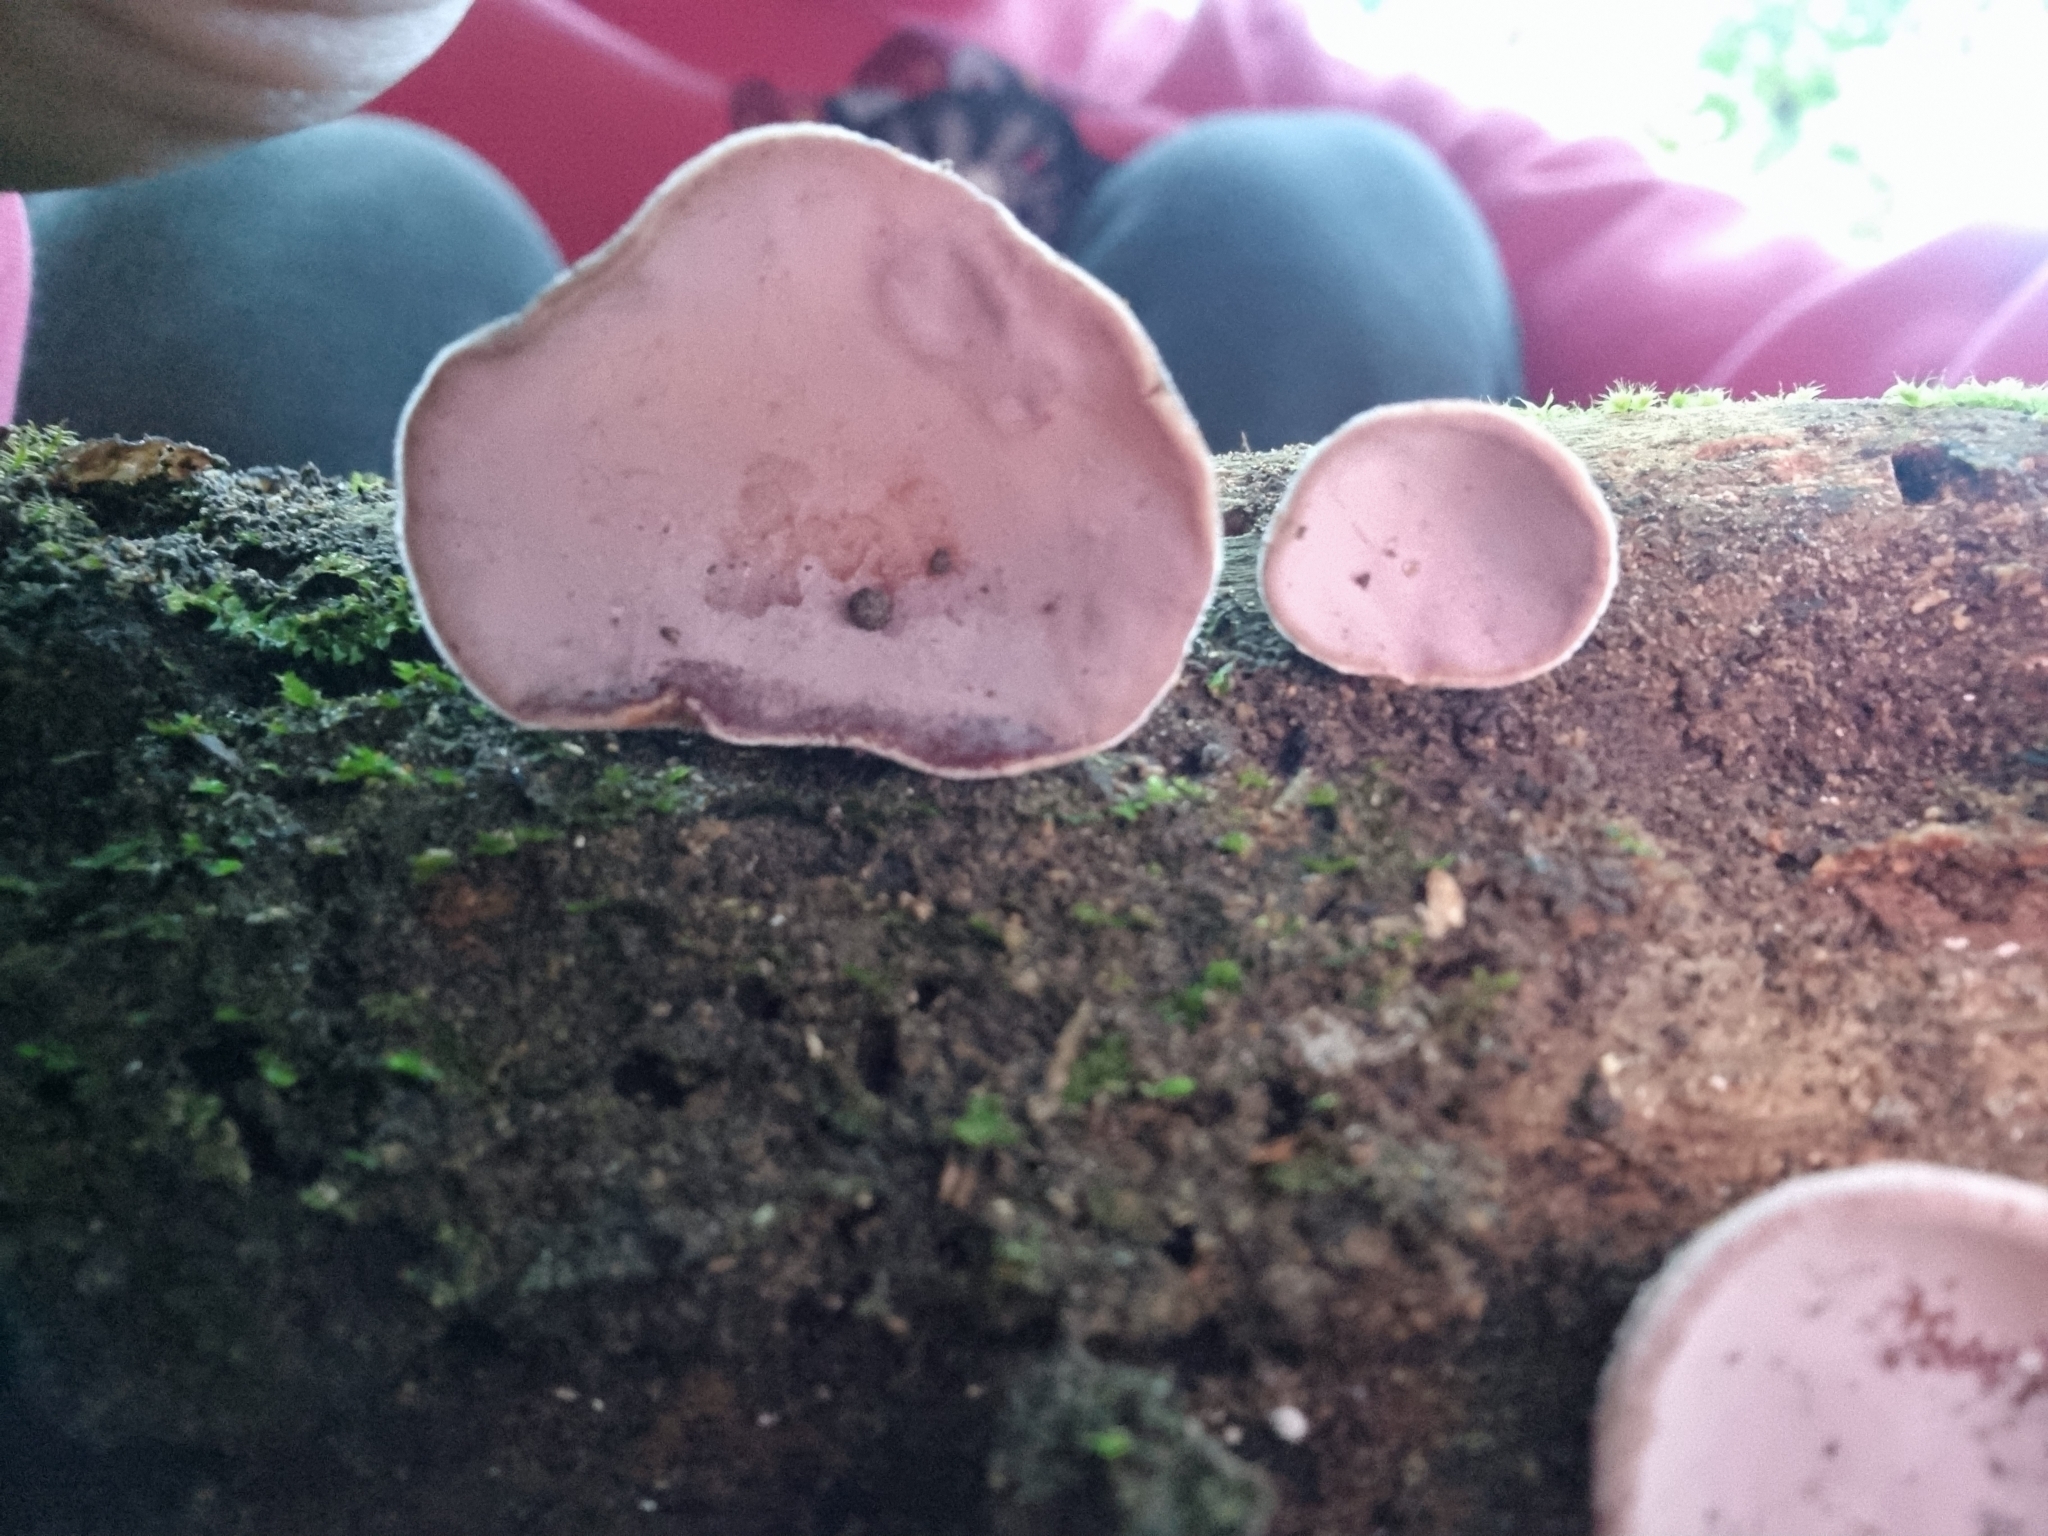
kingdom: Fungi
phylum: Basidiomycota
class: Agaricomycetes
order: Auriculariales
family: Auriculariaceae
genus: Auricularia
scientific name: Auricularia cornea
